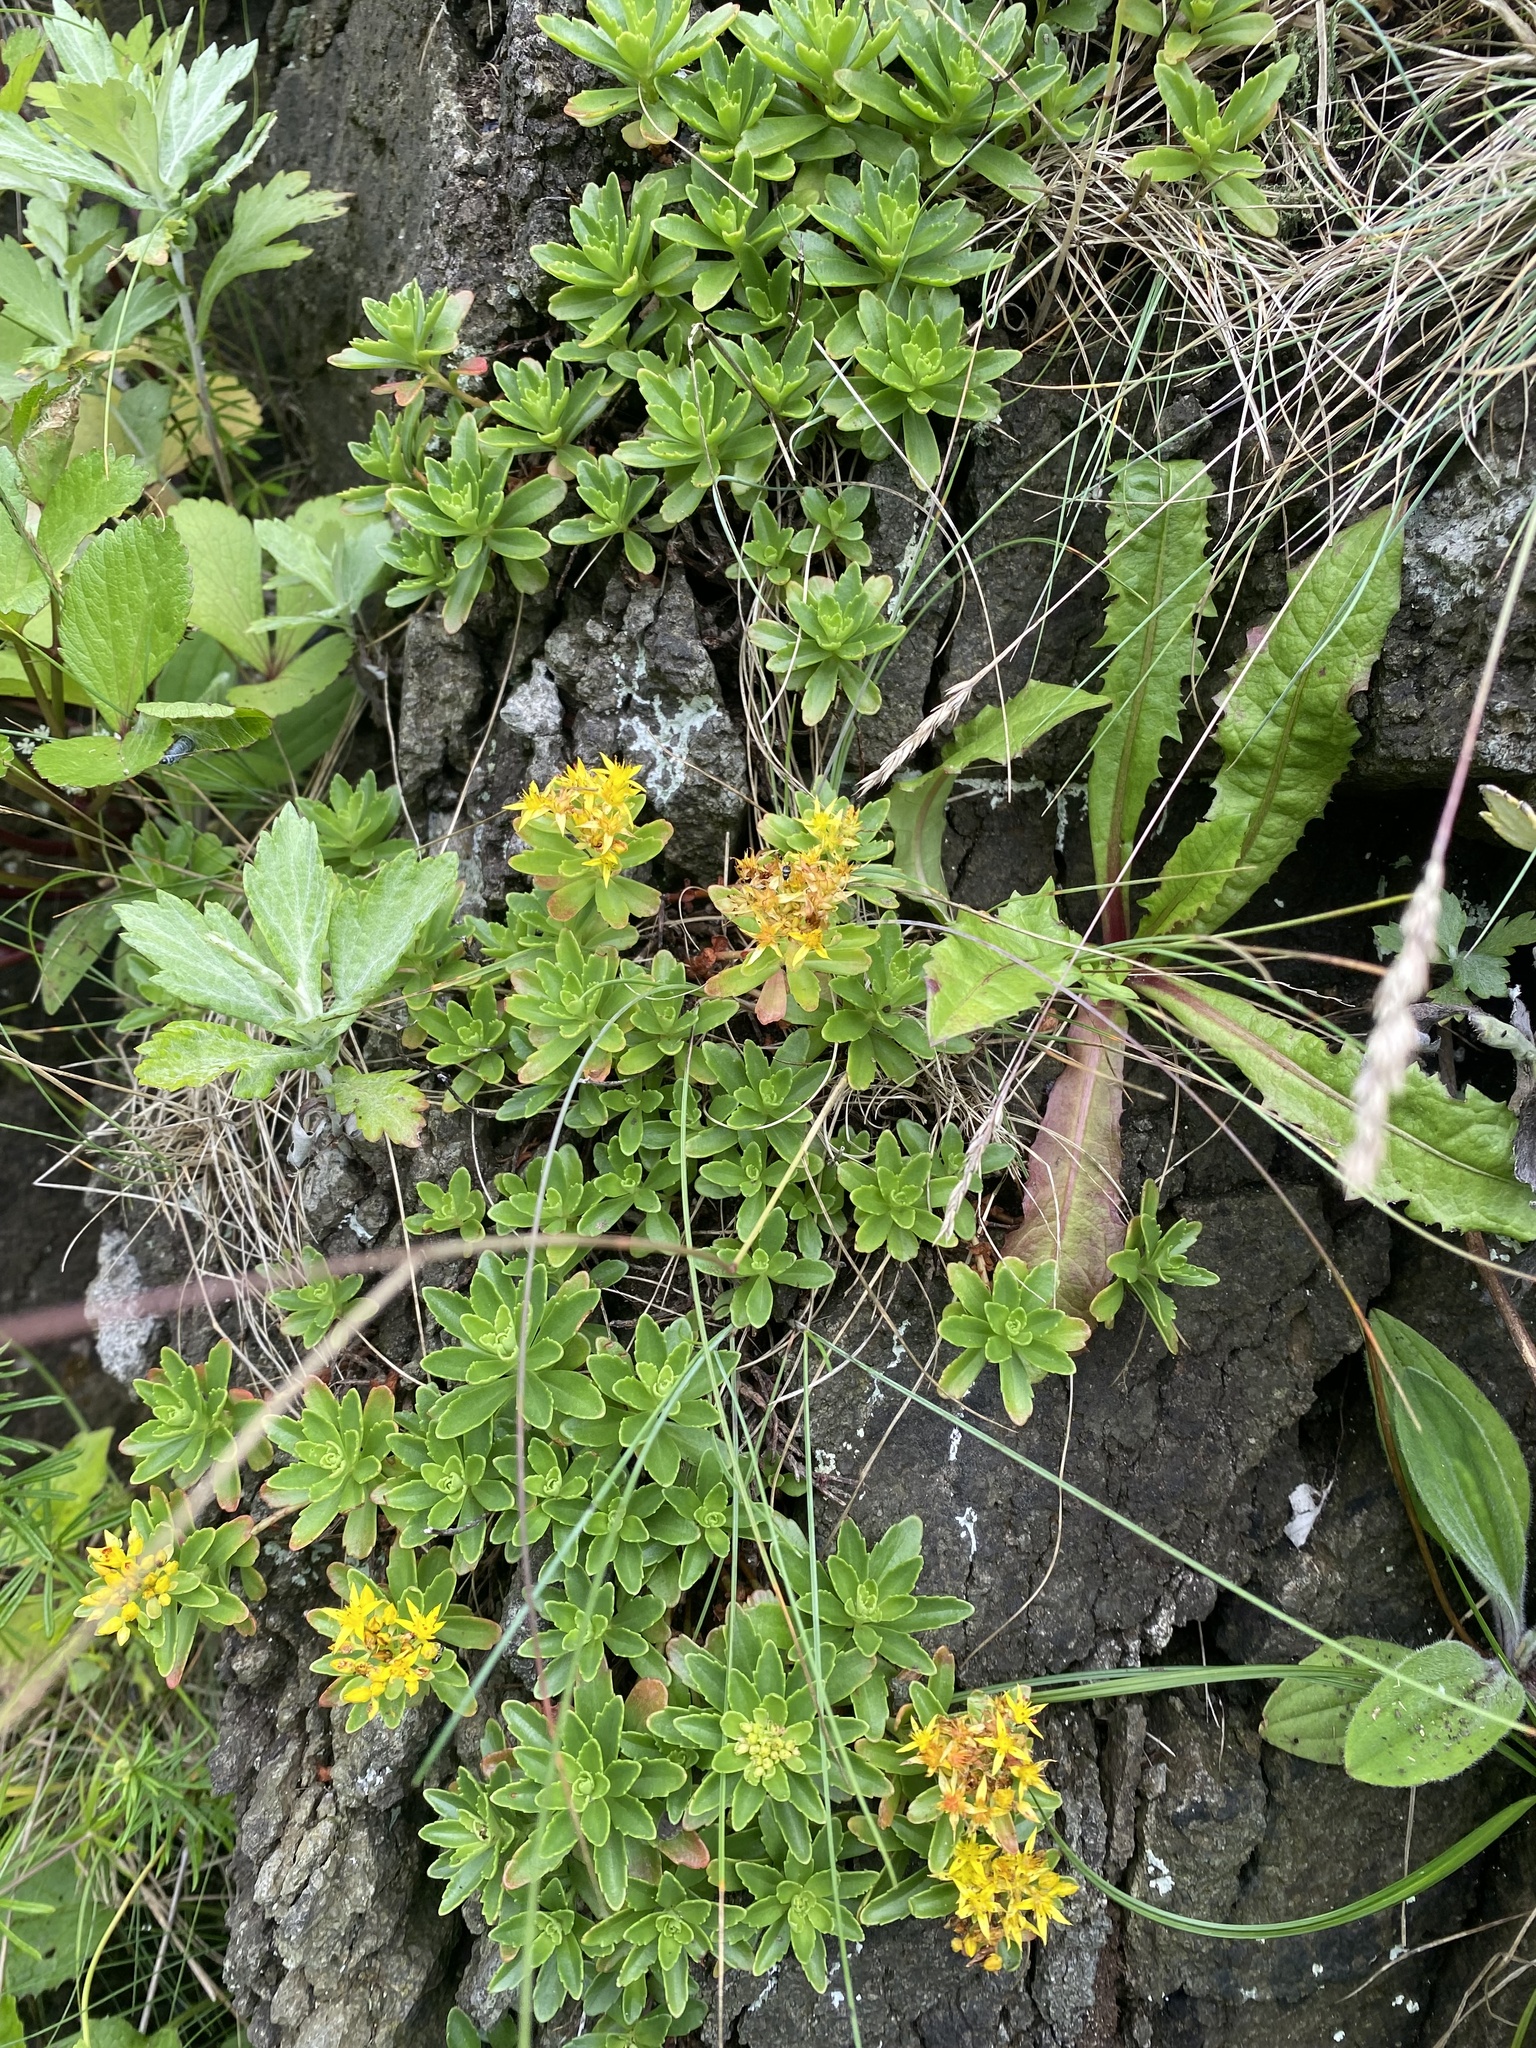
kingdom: Plantae
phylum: Tracheophyta
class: Magnoliopsida
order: Saxifragales
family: Crassulaceae
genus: Phedimus
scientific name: Phedimus kamtschaticus
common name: Orange stonecrop
